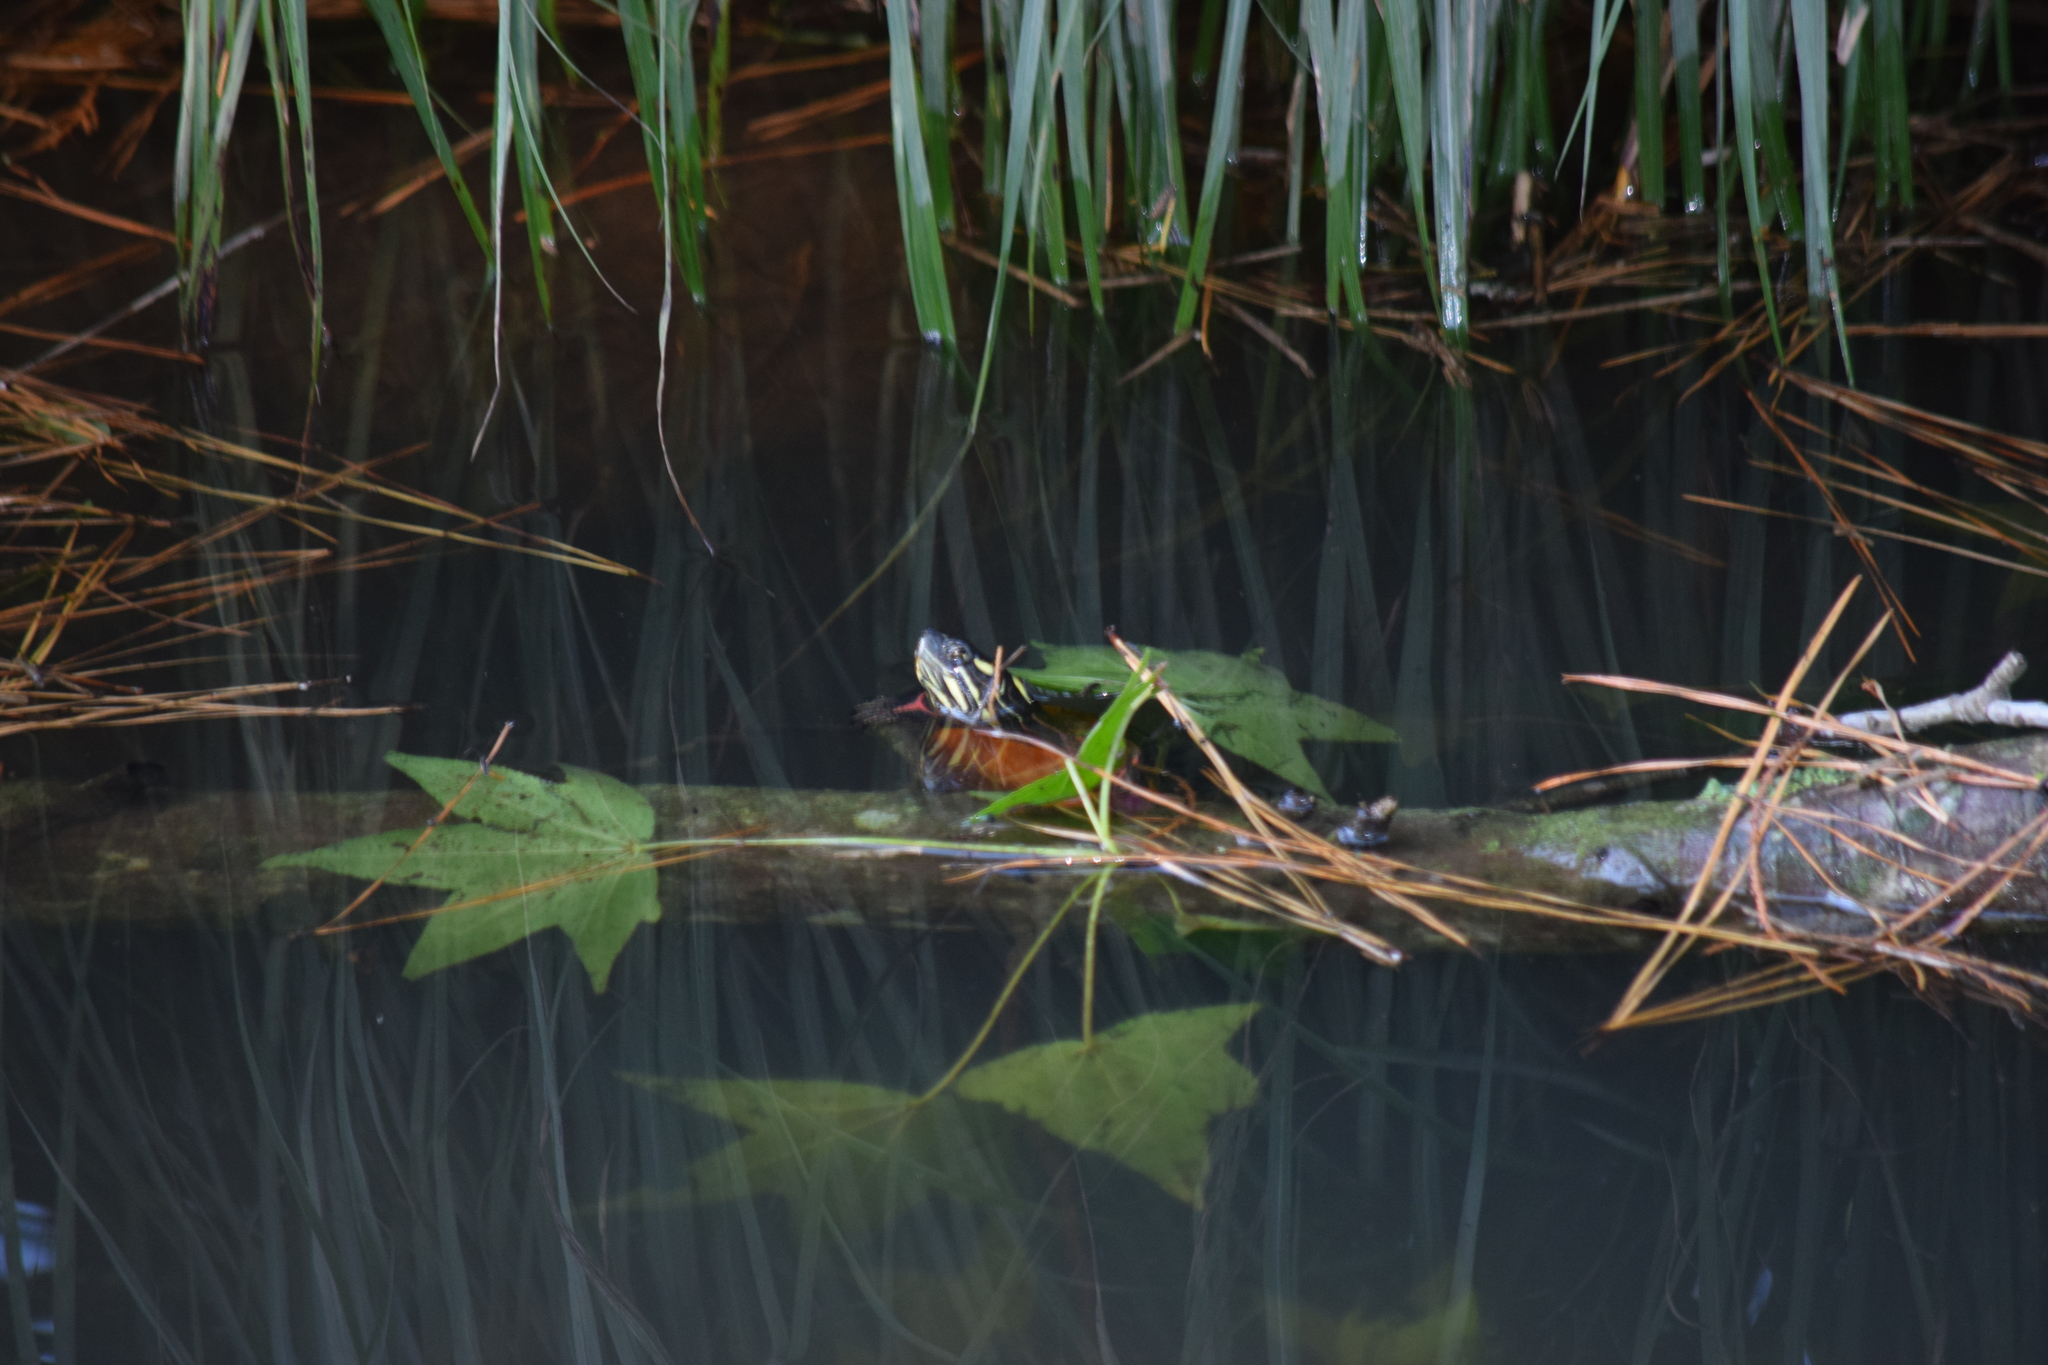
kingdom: Animalia
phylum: Chordata
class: Testudines
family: Emydidae
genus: Chrysemys
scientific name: Chrysemys picta
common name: Painted turtle
